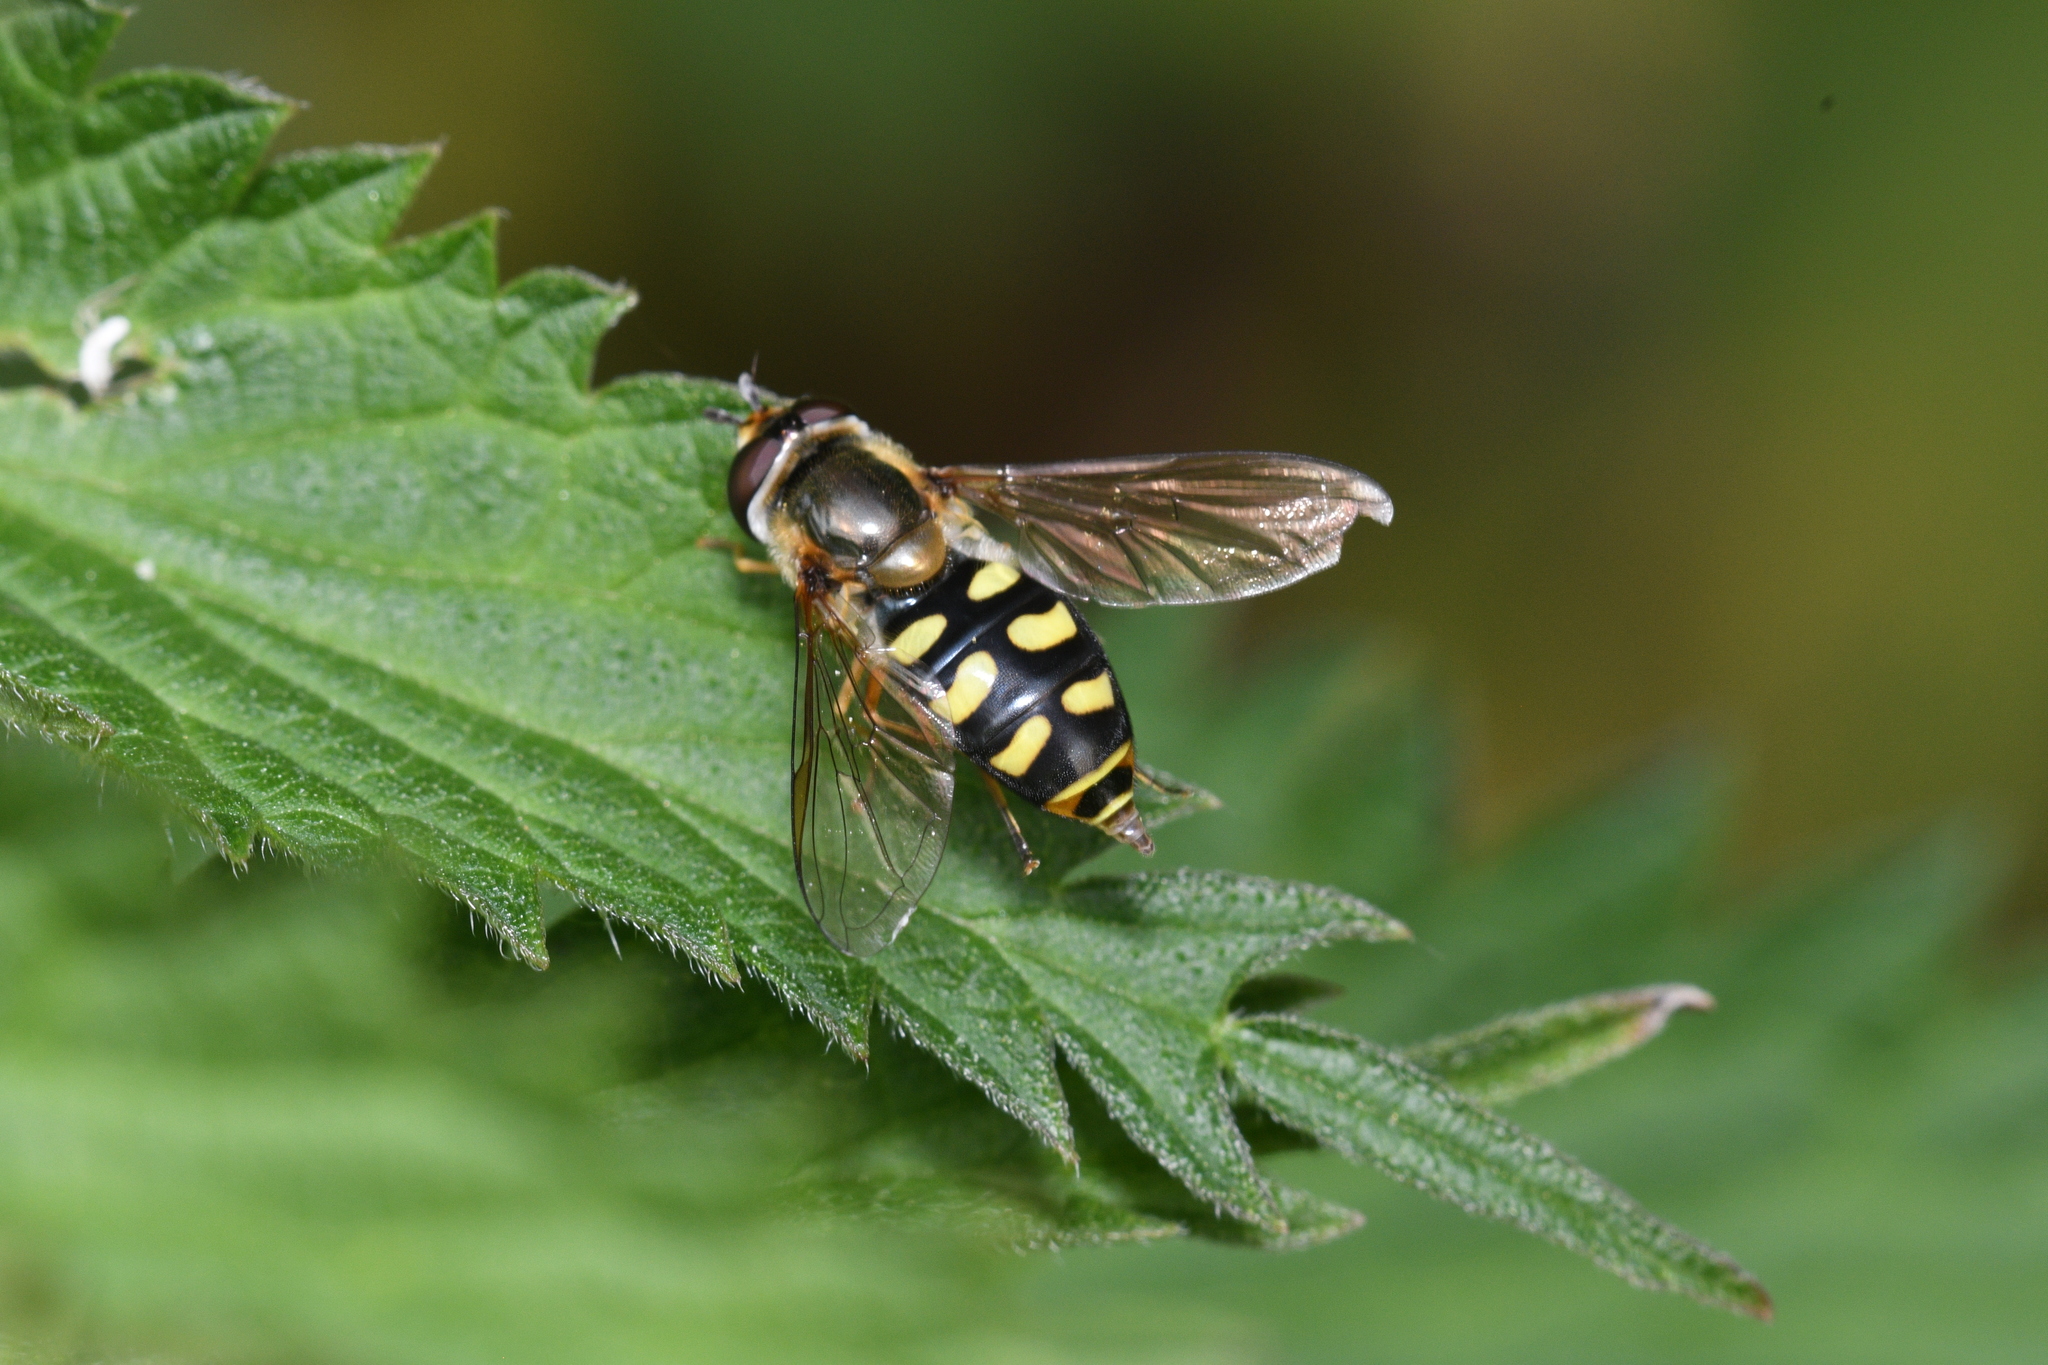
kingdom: Animalia
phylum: Arthropoda
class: Insecta
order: Diptera
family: Syrphidae
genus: Eupeodes
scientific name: Eupeodes
